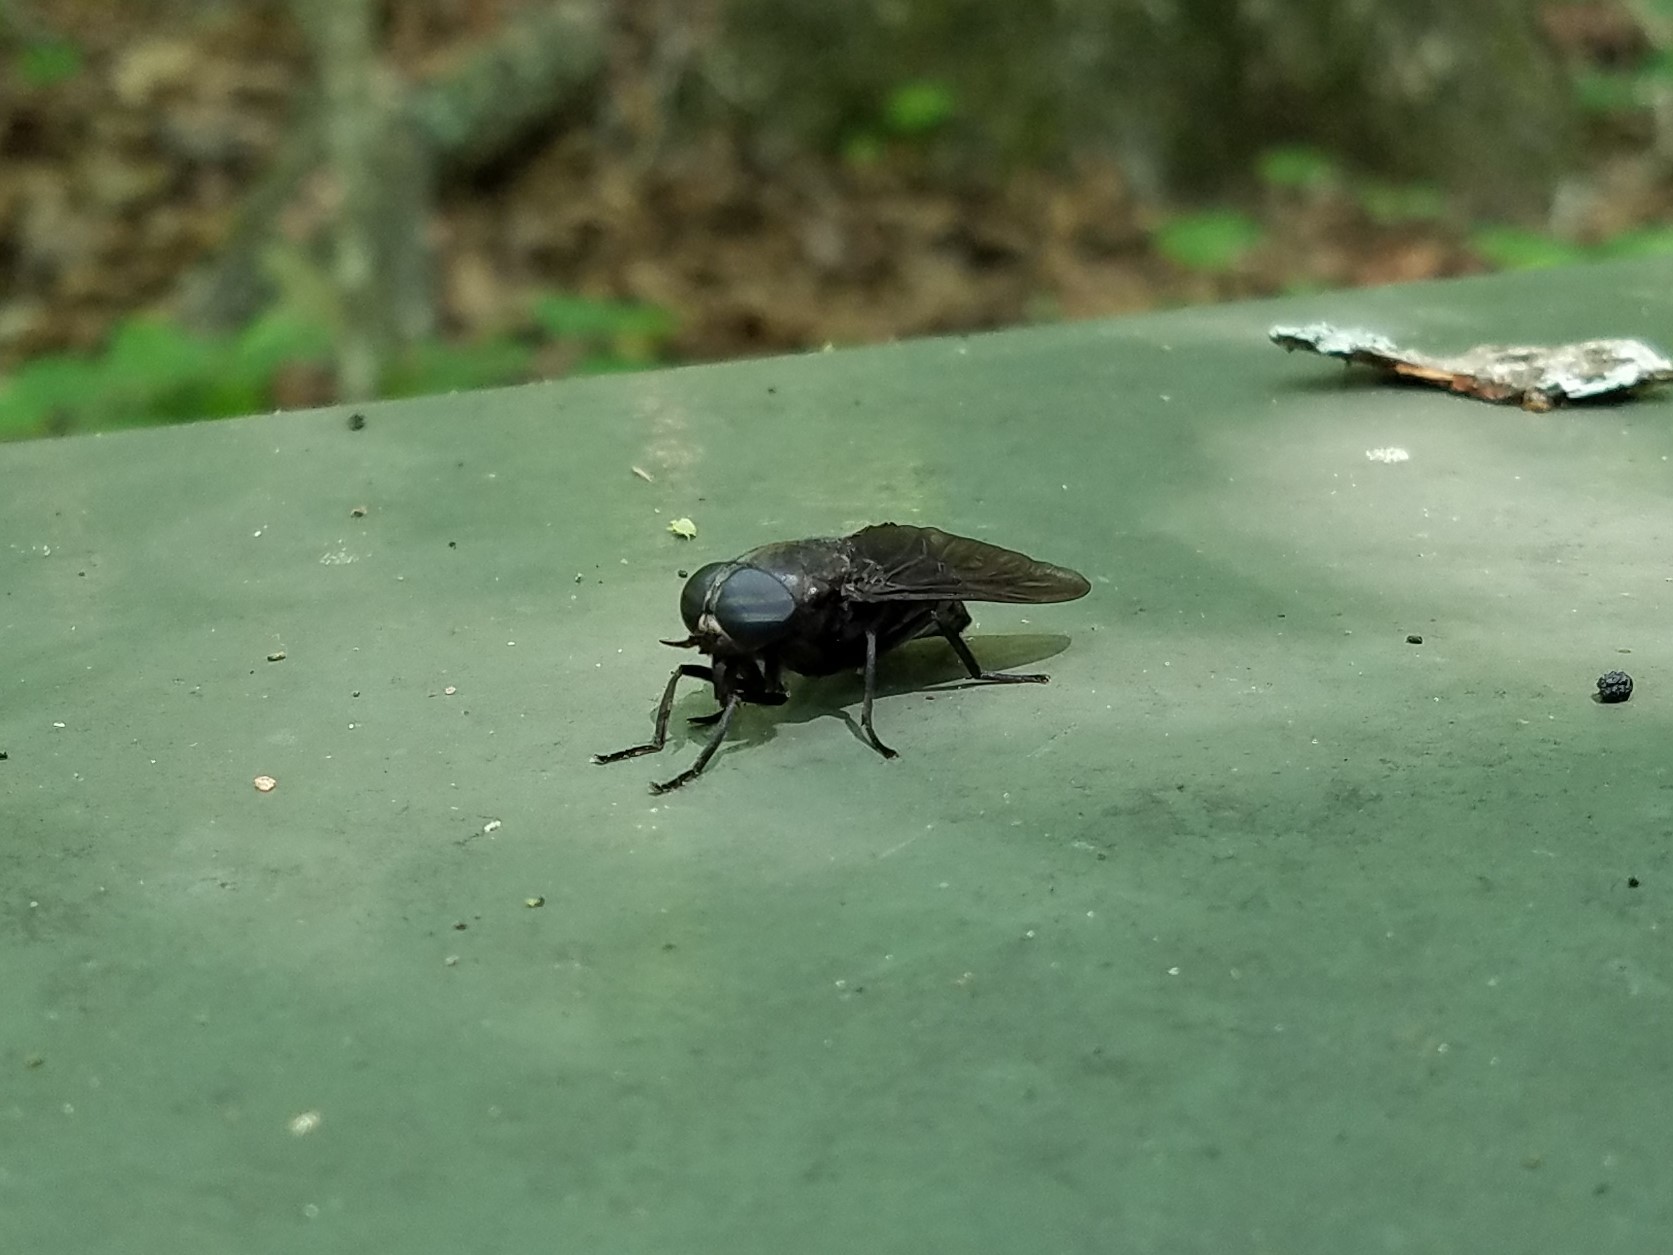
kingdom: Animalia
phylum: Arthropoda
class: Insecta
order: Diptera
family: Tabanidae
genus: Tabanus
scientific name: Tabanus atratus
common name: Black horse fly
